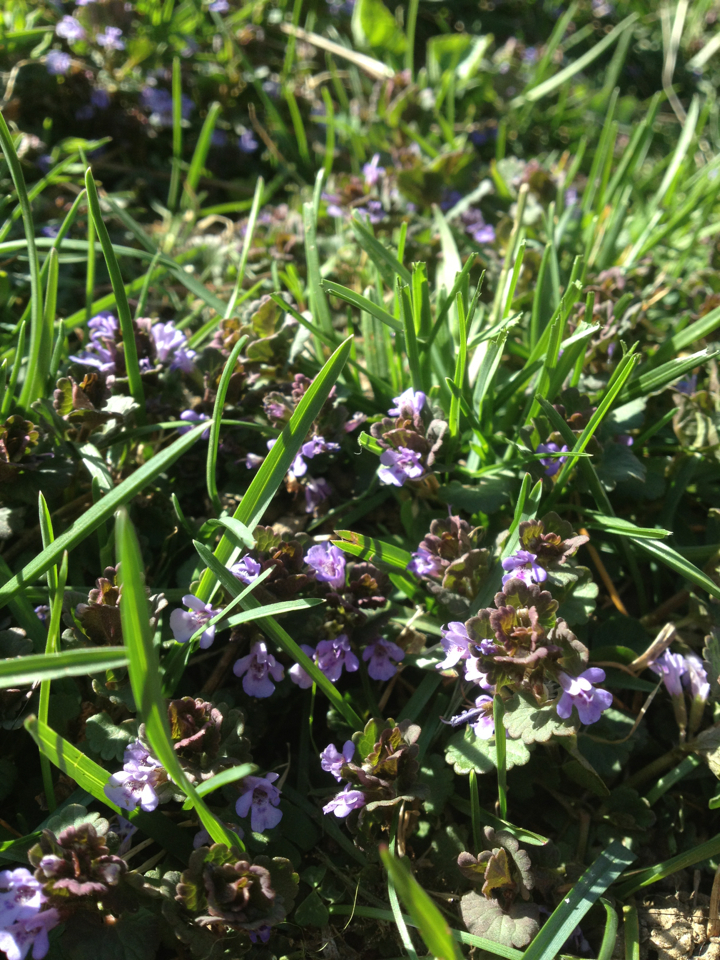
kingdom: Plantae
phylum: Tracheophyta
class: Magnoliopsida
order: Lamiales
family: Lamiaceae
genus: Glechoma
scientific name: Glechoma hederacea
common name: Ground ivy
